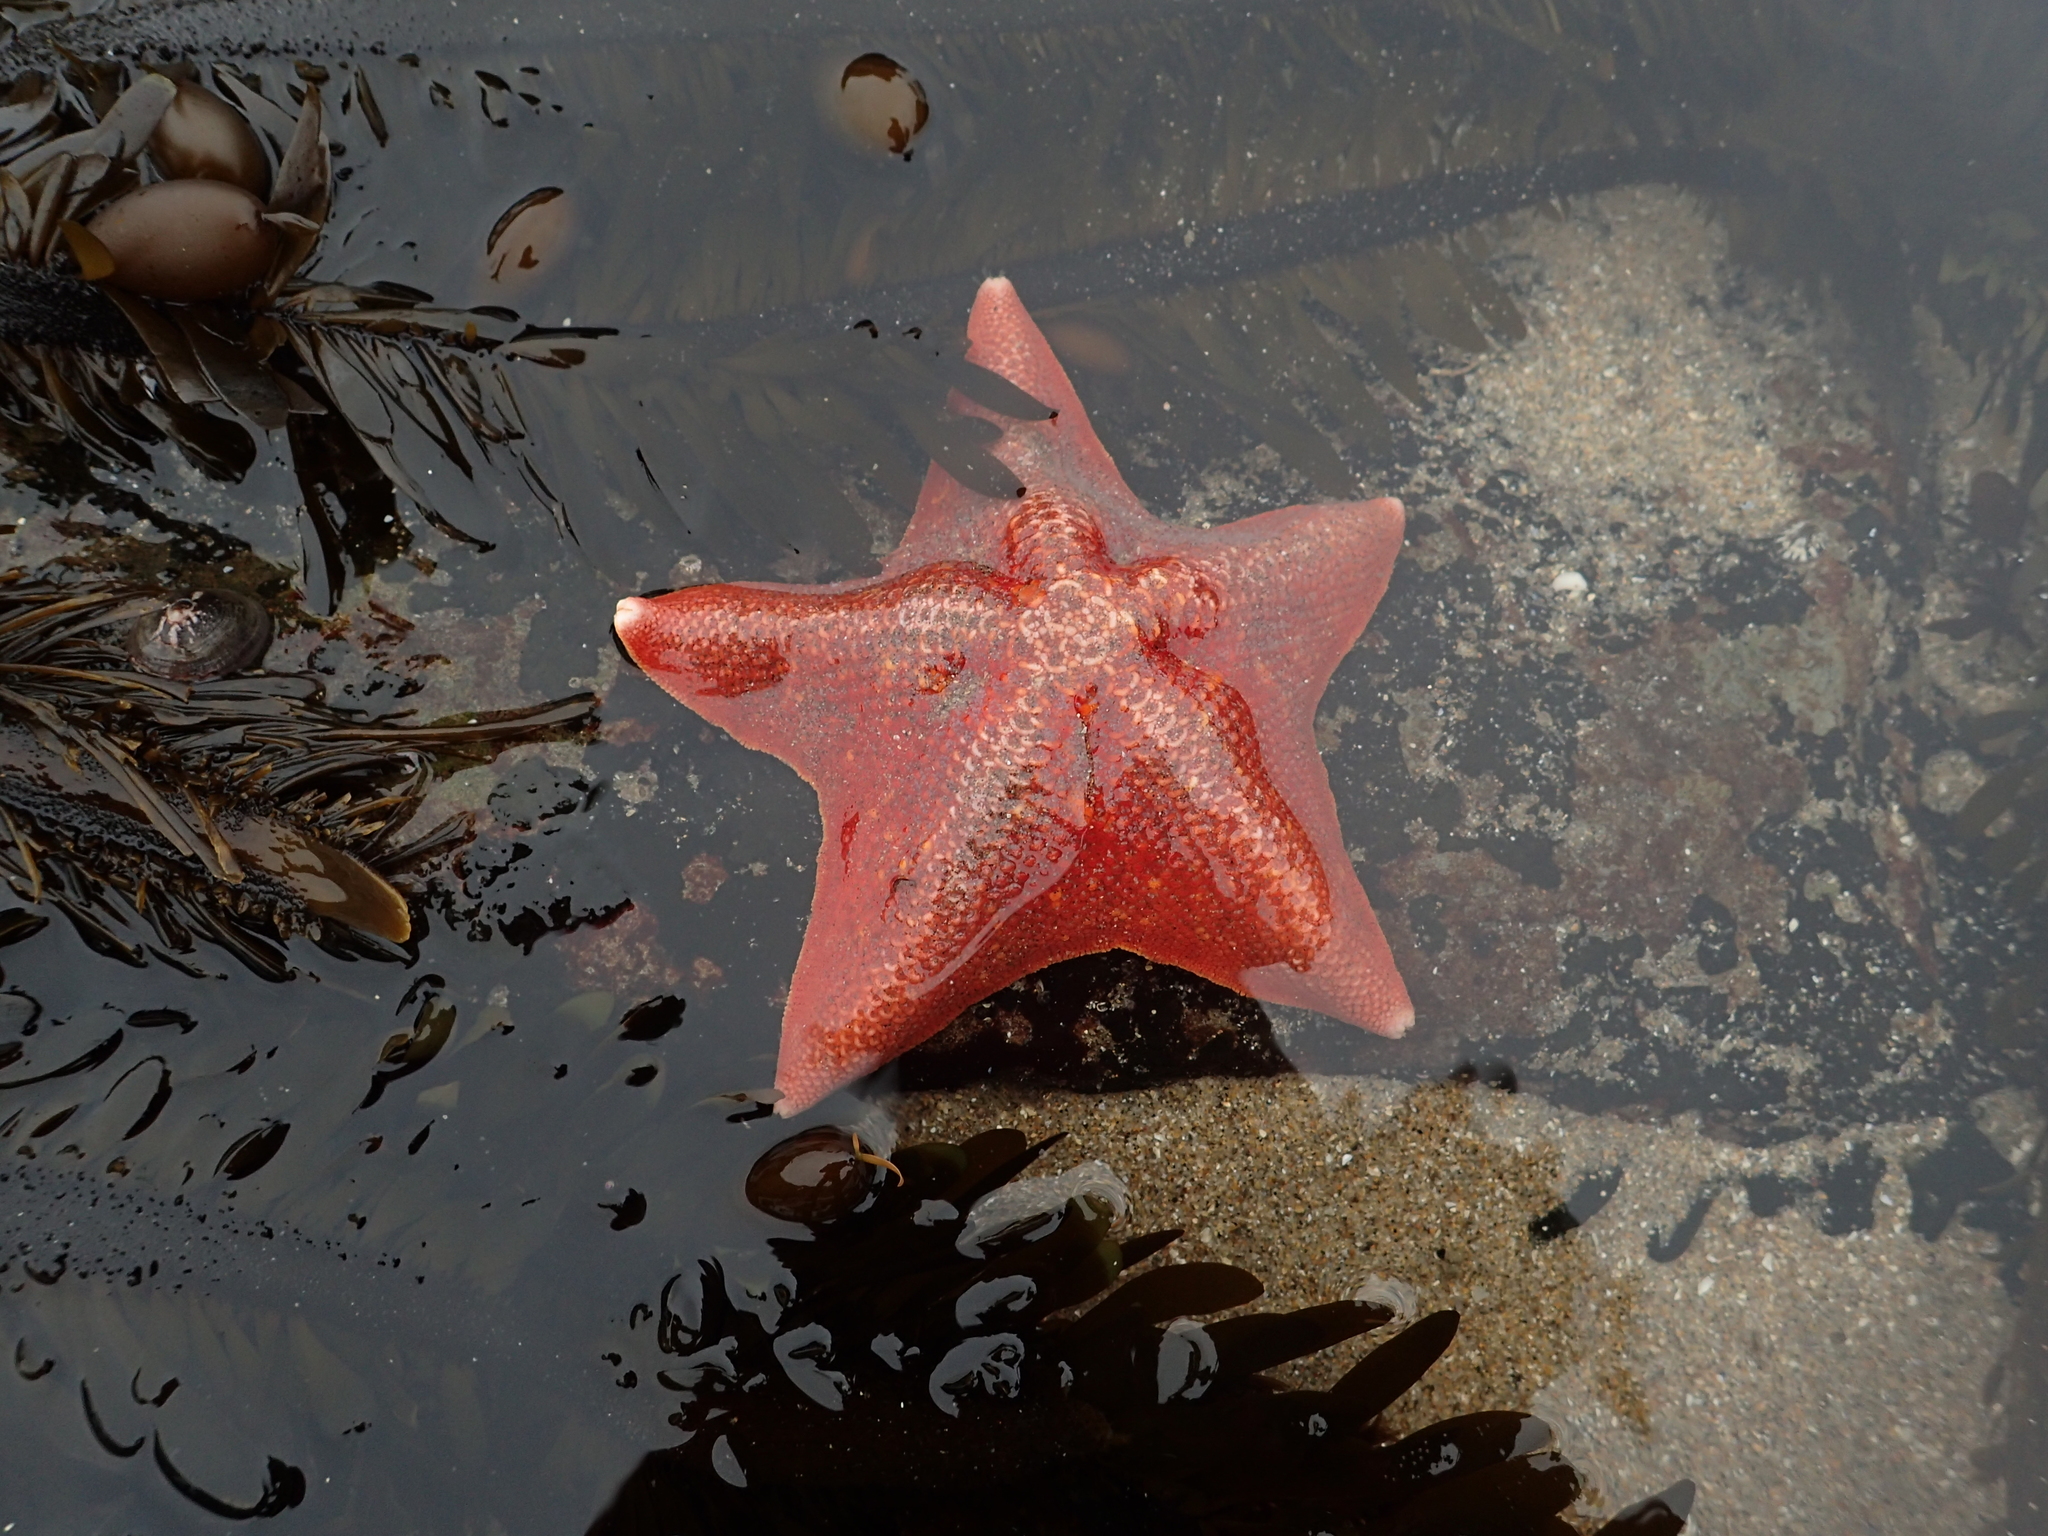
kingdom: Animalia
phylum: Echinodermata
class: Asteroidea
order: Valvatida
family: Asterinidae
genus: Patiria
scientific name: Patiria miniata
